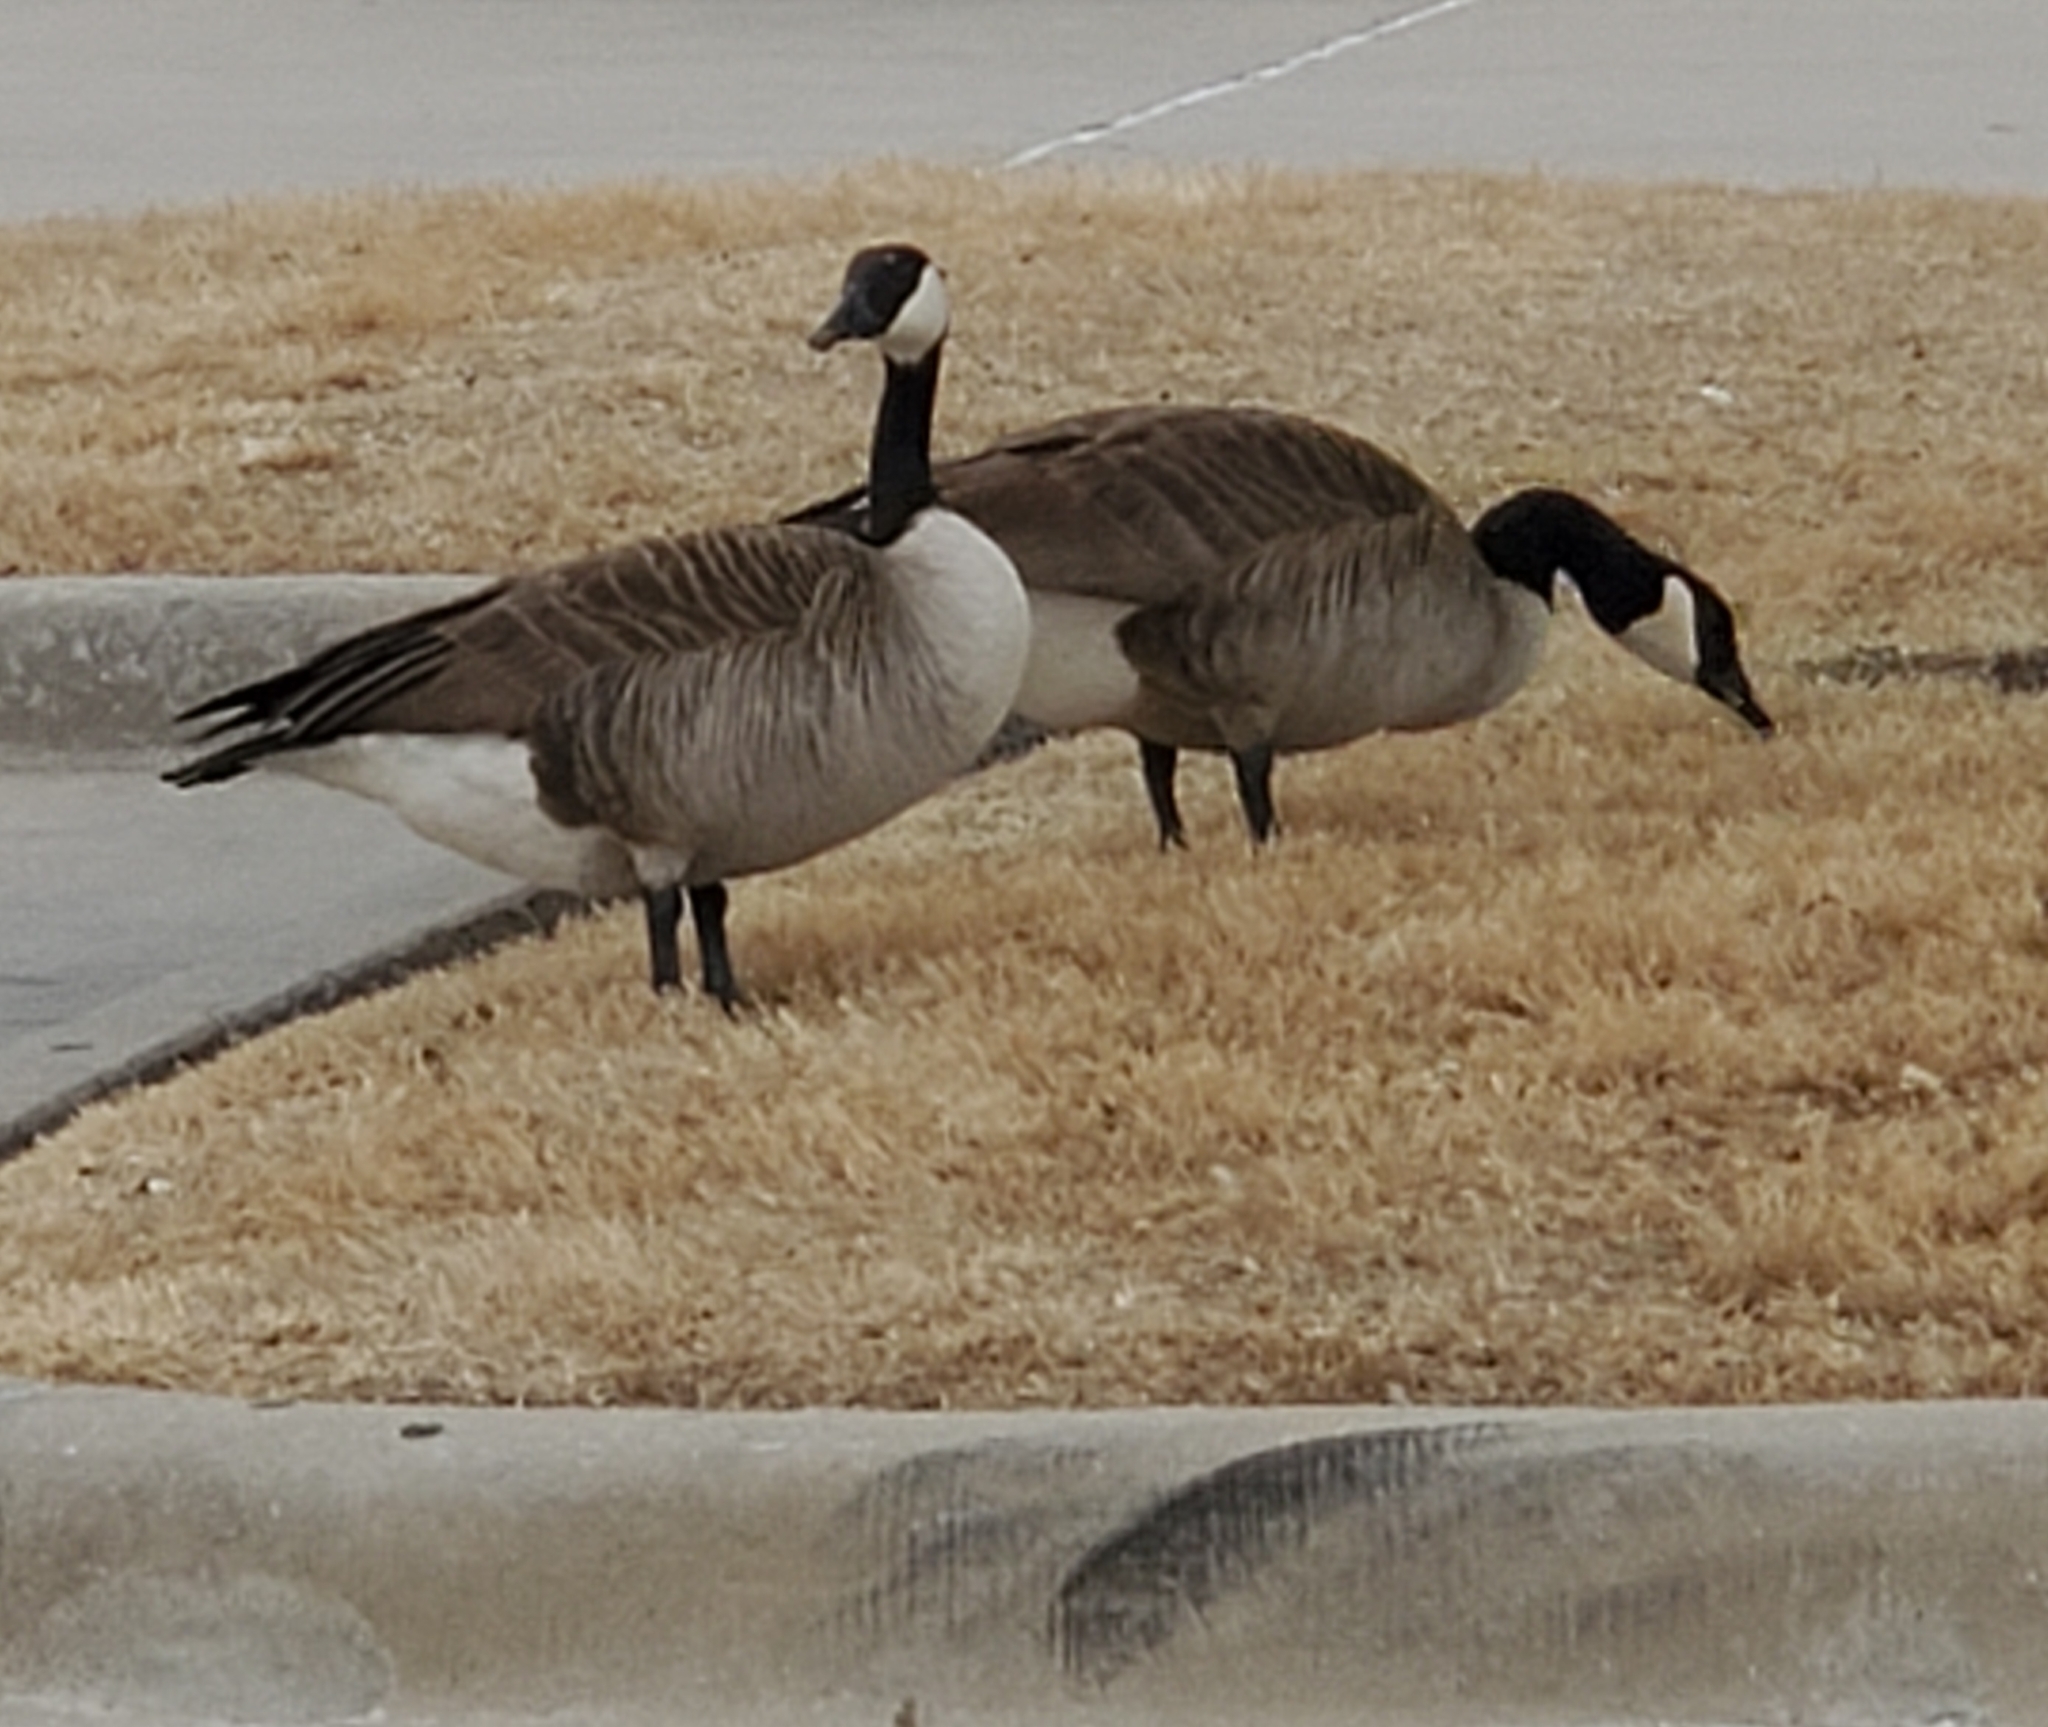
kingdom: Animalia
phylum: Chordata
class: Aves
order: Anseriformes
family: Anatidae
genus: Branta
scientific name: Branta canadensis
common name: Canada goose
